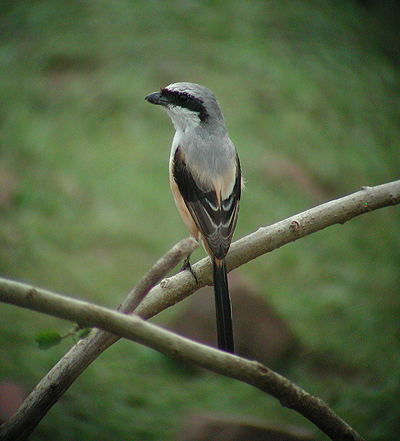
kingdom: Animalia
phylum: Chordata
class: Aves
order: Passeriformes
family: Laniidae
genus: Lanius
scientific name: Lanius schach
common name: Long-tailed shrike
